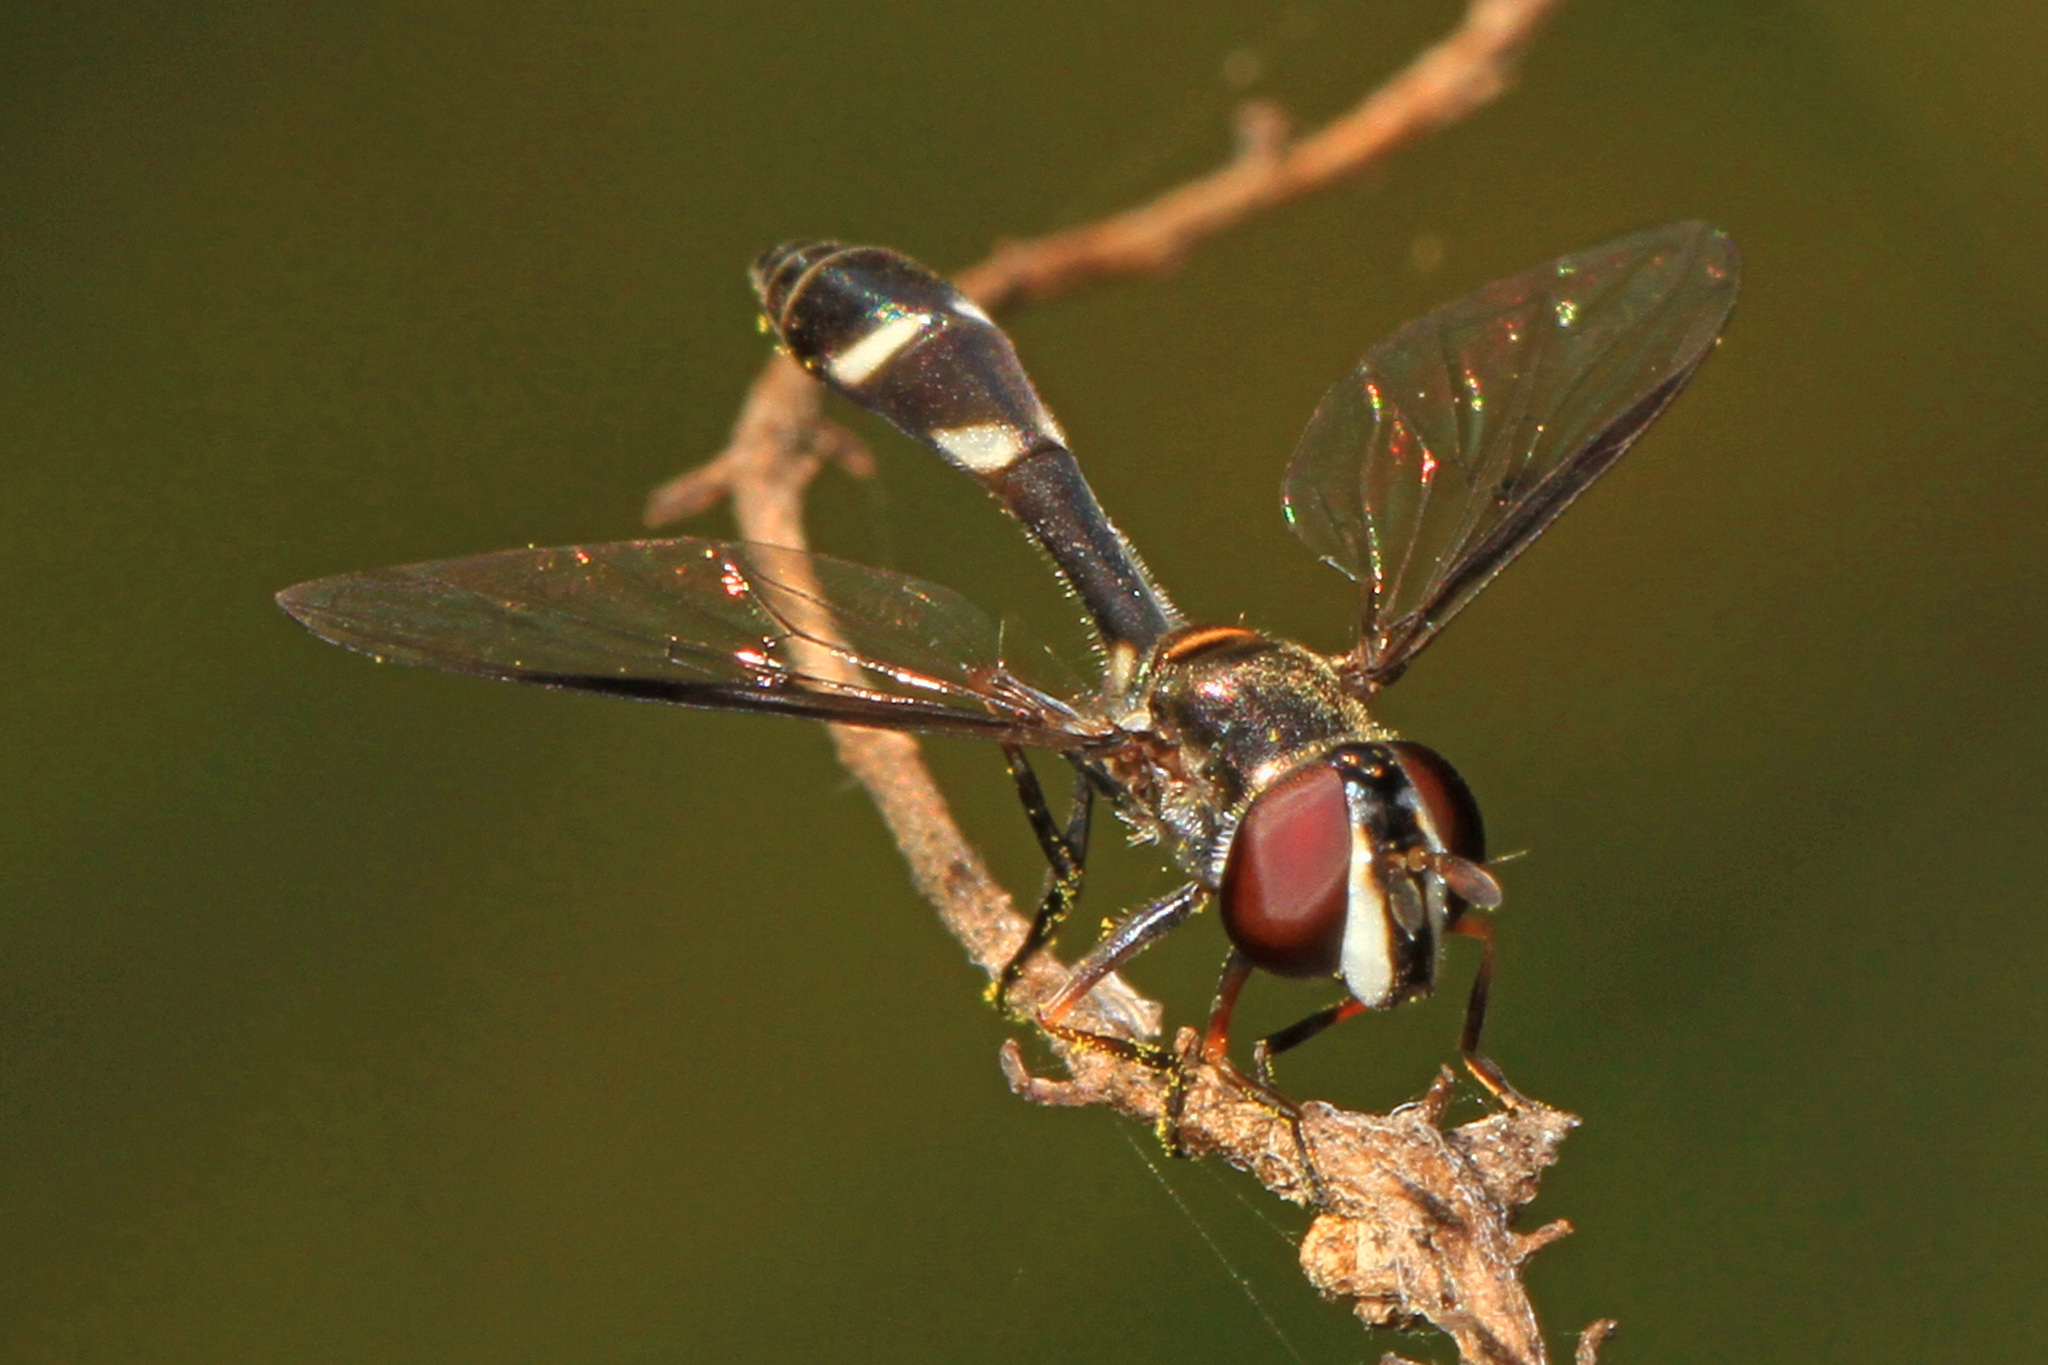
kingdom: Animalia
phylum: Arthropoda
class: Insecta
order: Diptera
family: Syrphidae
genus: Dioprosopa
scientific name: Dioprosopa clavatus
